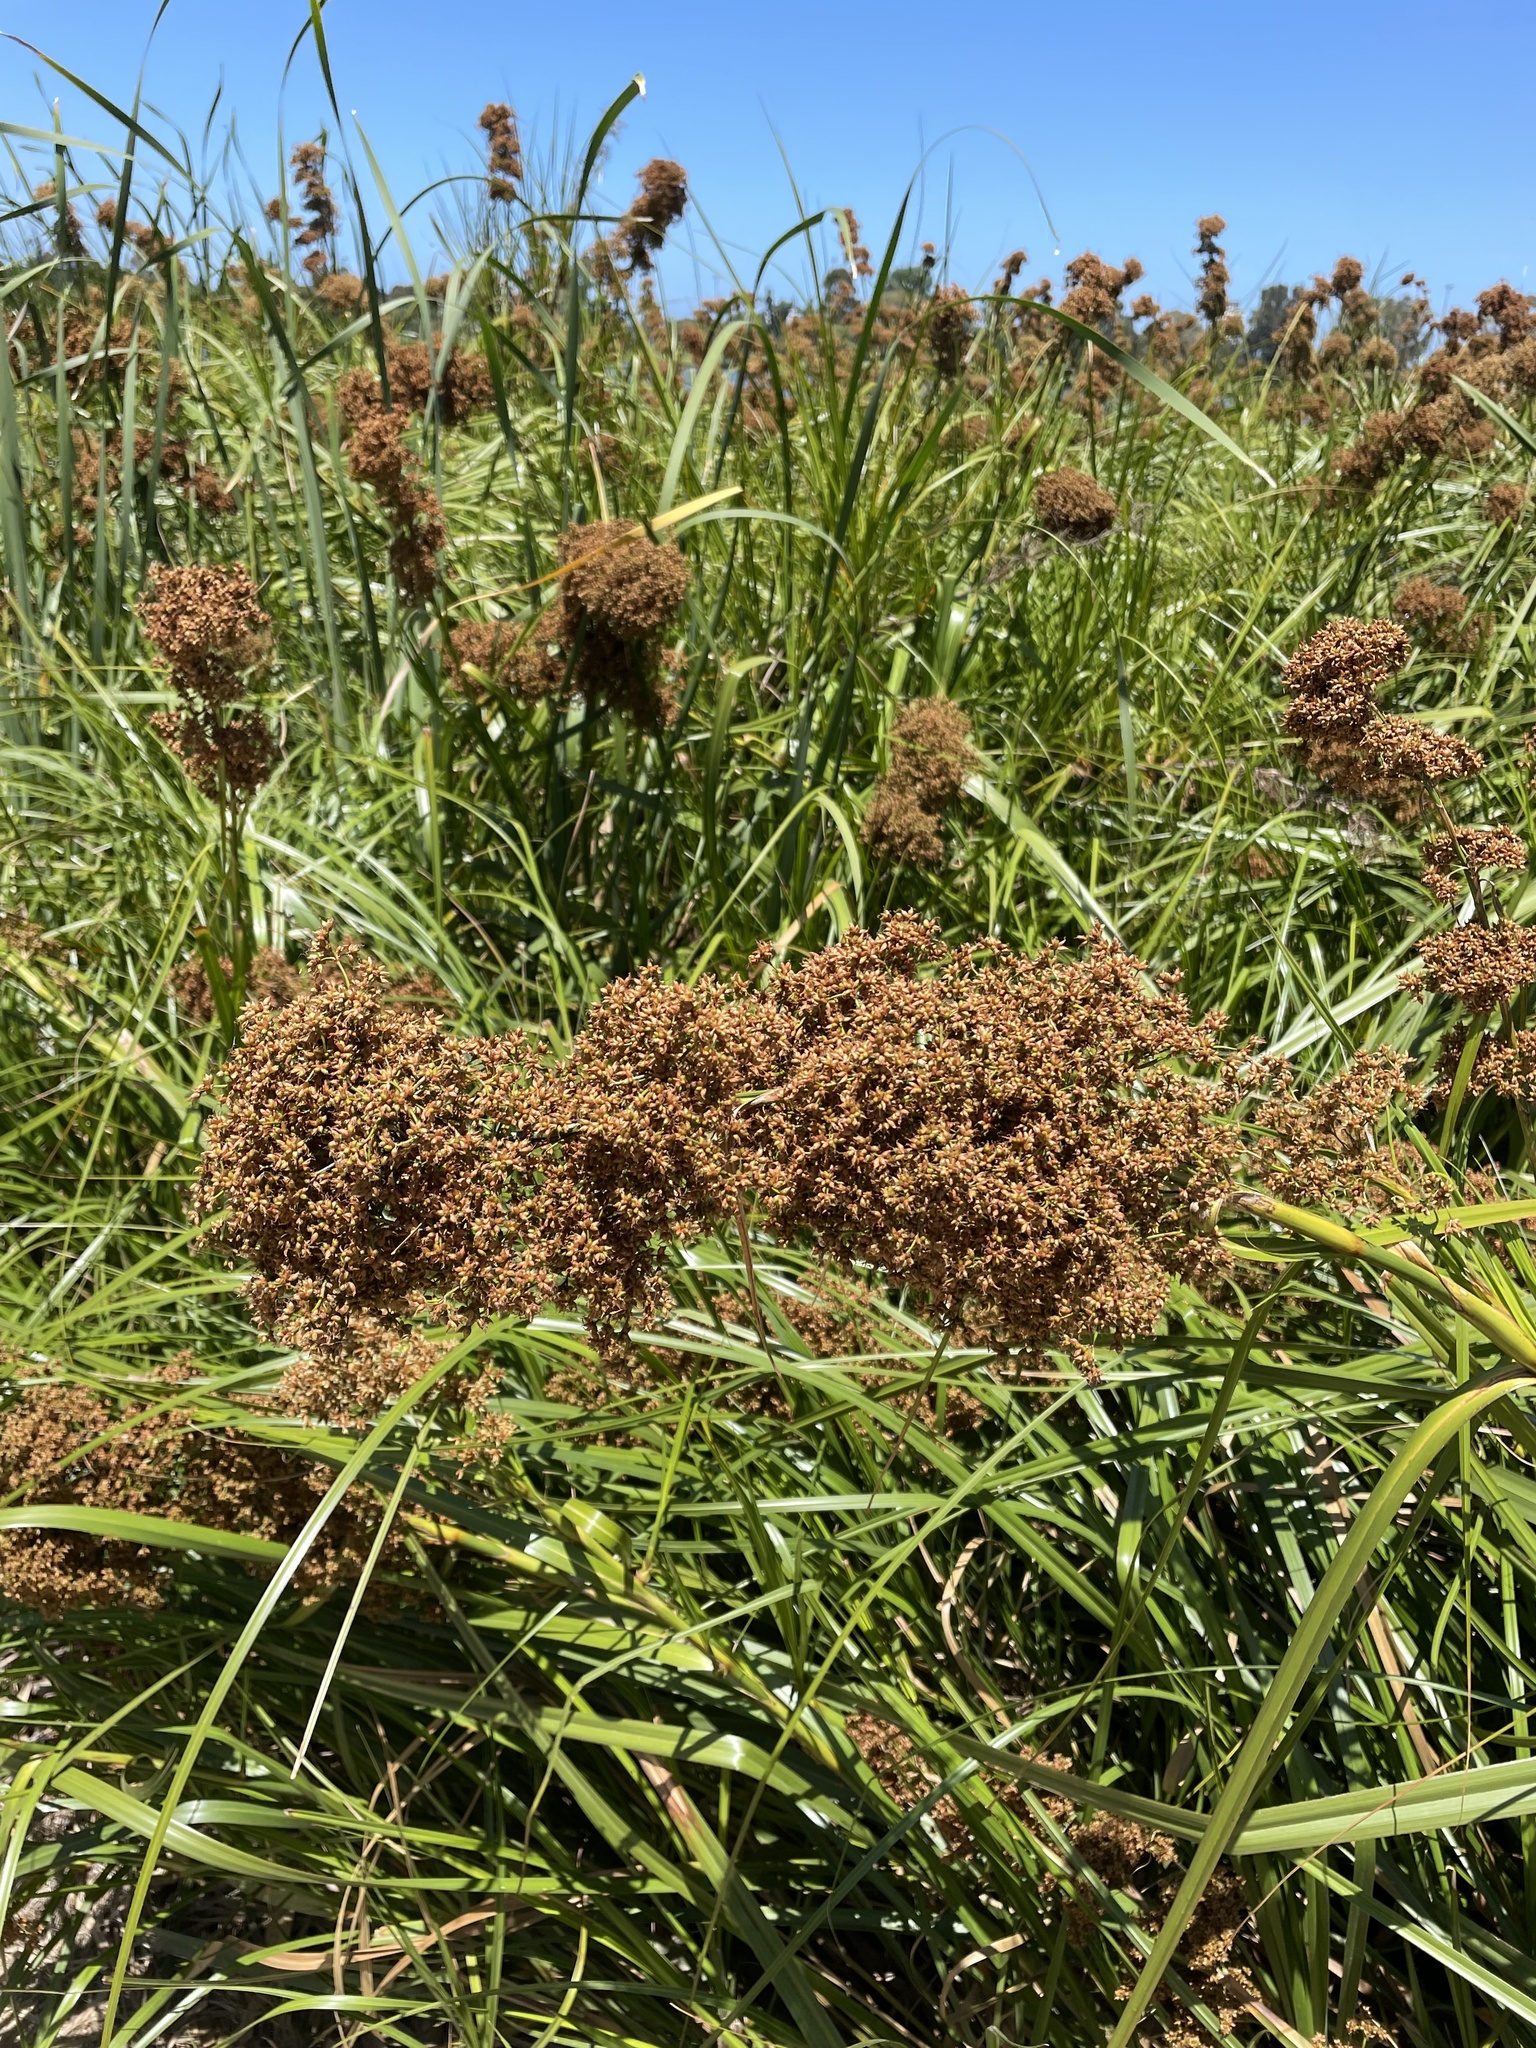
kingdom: Plantae
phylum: Tracheophyta
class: Liliopsida
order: Poales
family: Cyperaceae
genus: Cladium
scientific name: Cladium mariscus
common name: Great fen-sedge
